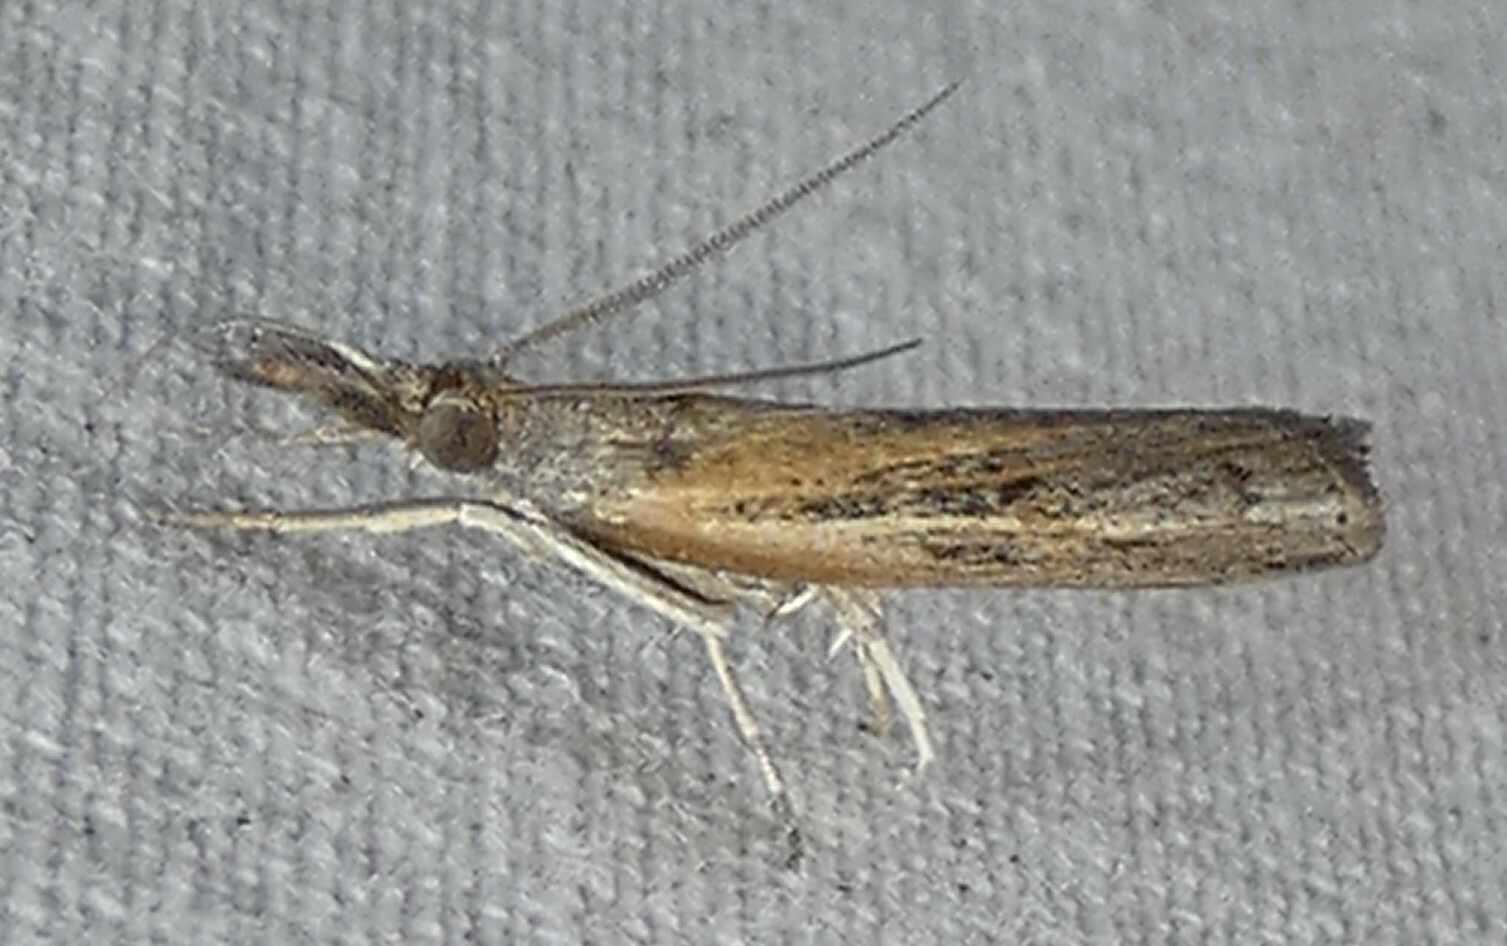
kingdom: Animalia
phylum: Arthropoda
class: Insecta
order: Lepidoptera
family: Crambidae
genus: Fissicrambus
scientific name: Fissicrambus mutabilis
